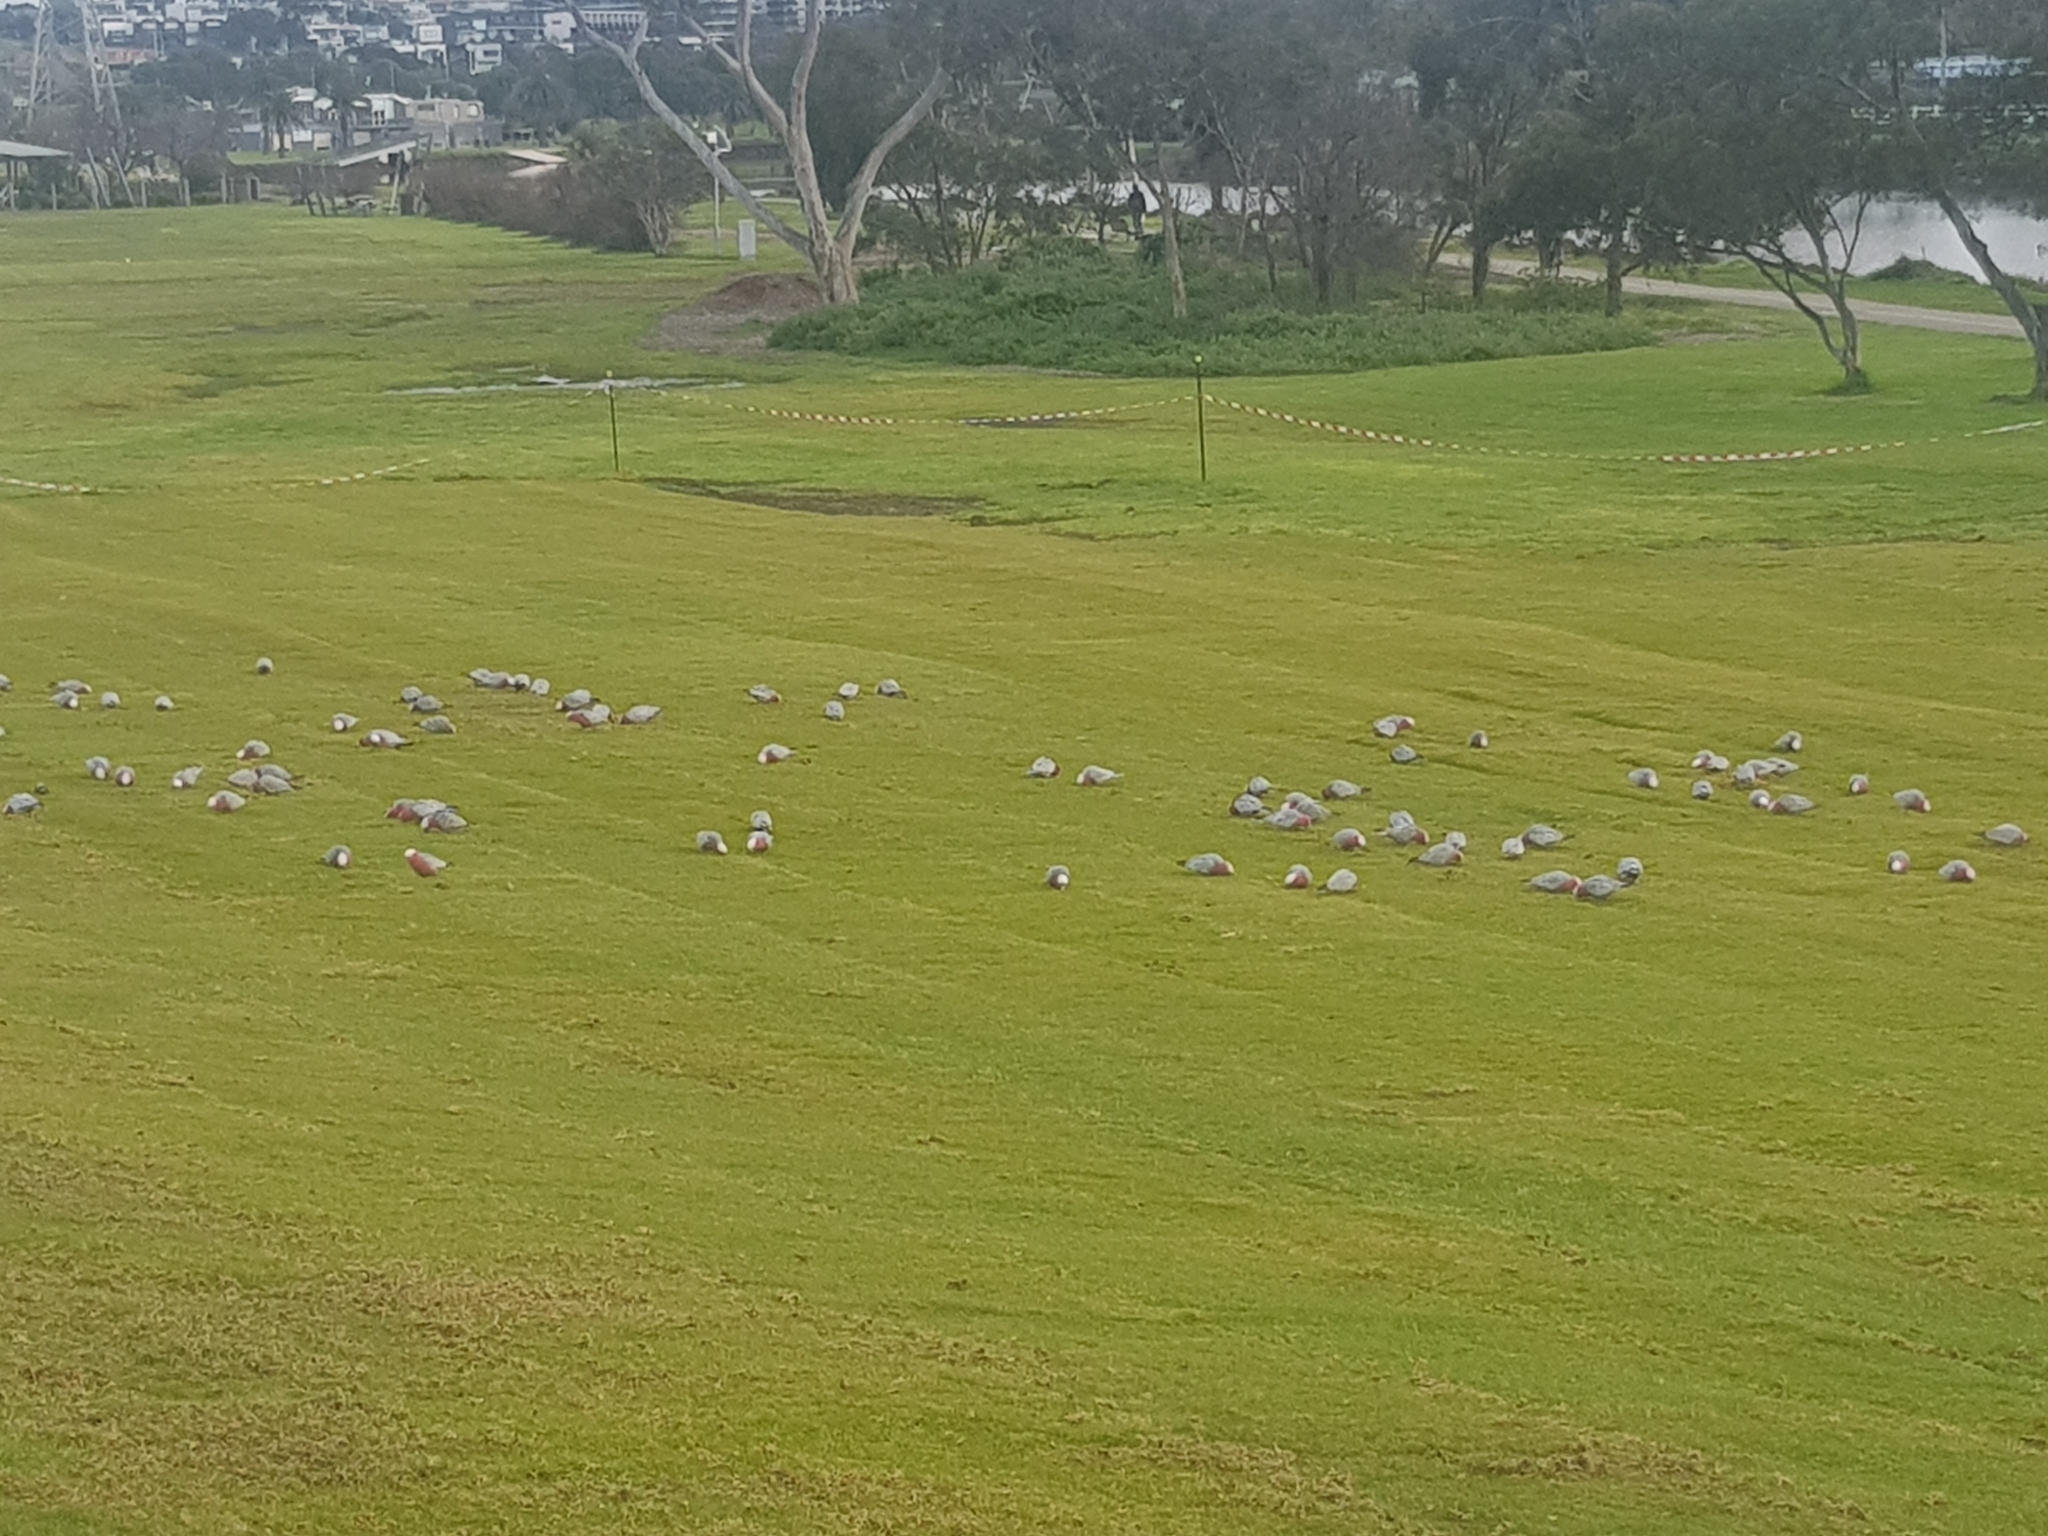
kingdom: Animalia
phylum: Chordata
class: Aves
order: Psittaciformes
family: Psittacidae
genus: Eolophus
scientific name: Eolophus roseicapilla
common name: Galah
